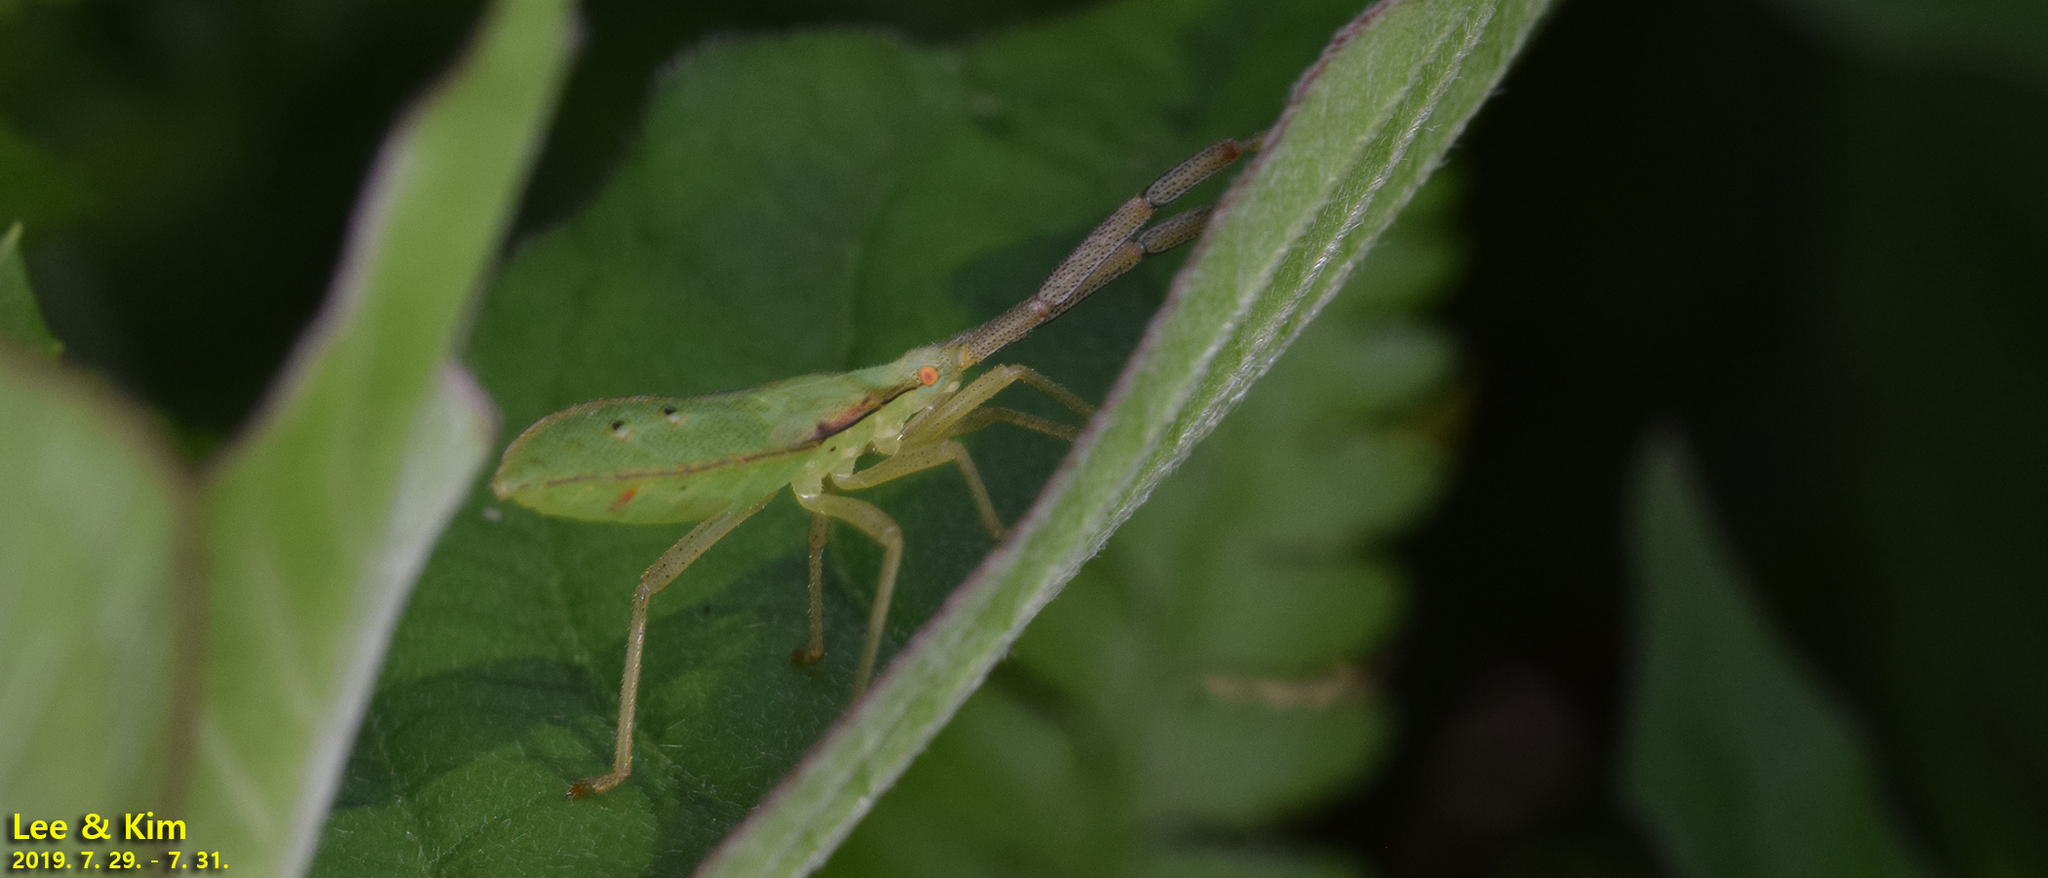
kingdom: Animalia
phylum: Arthropoda
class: Insecta
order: Hemiptera
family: Coreidae
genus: Homoeocerus
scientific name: Homoeocerus dilatatus
